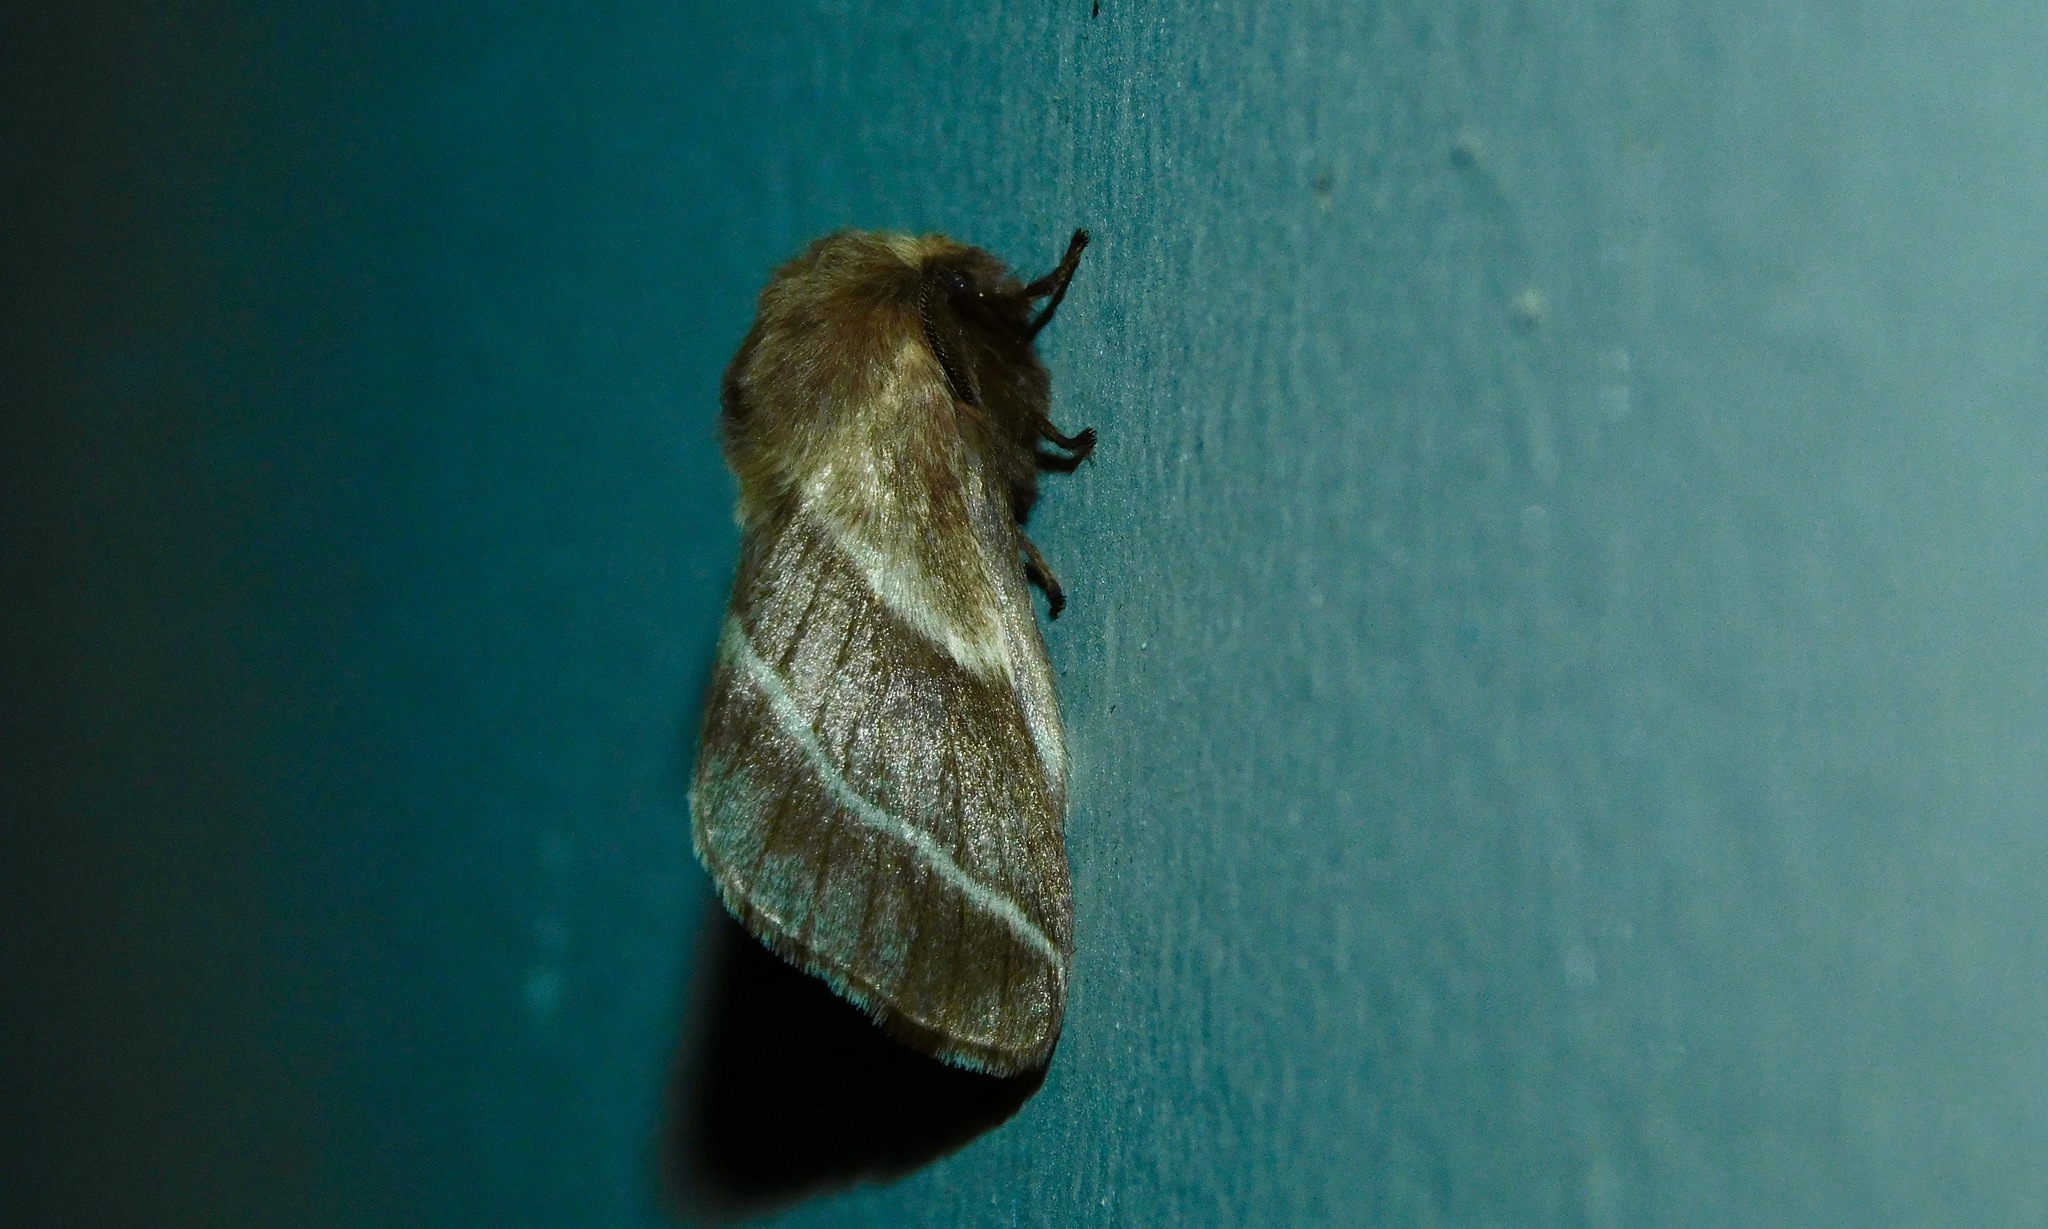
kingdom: Animalia
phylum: Arthropoda
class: Insecta
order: Lepidoptera
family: Lasiocampidae
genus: Malacosoma
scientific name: Malacosoma americana
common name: Eastern tent caterpillar moth
